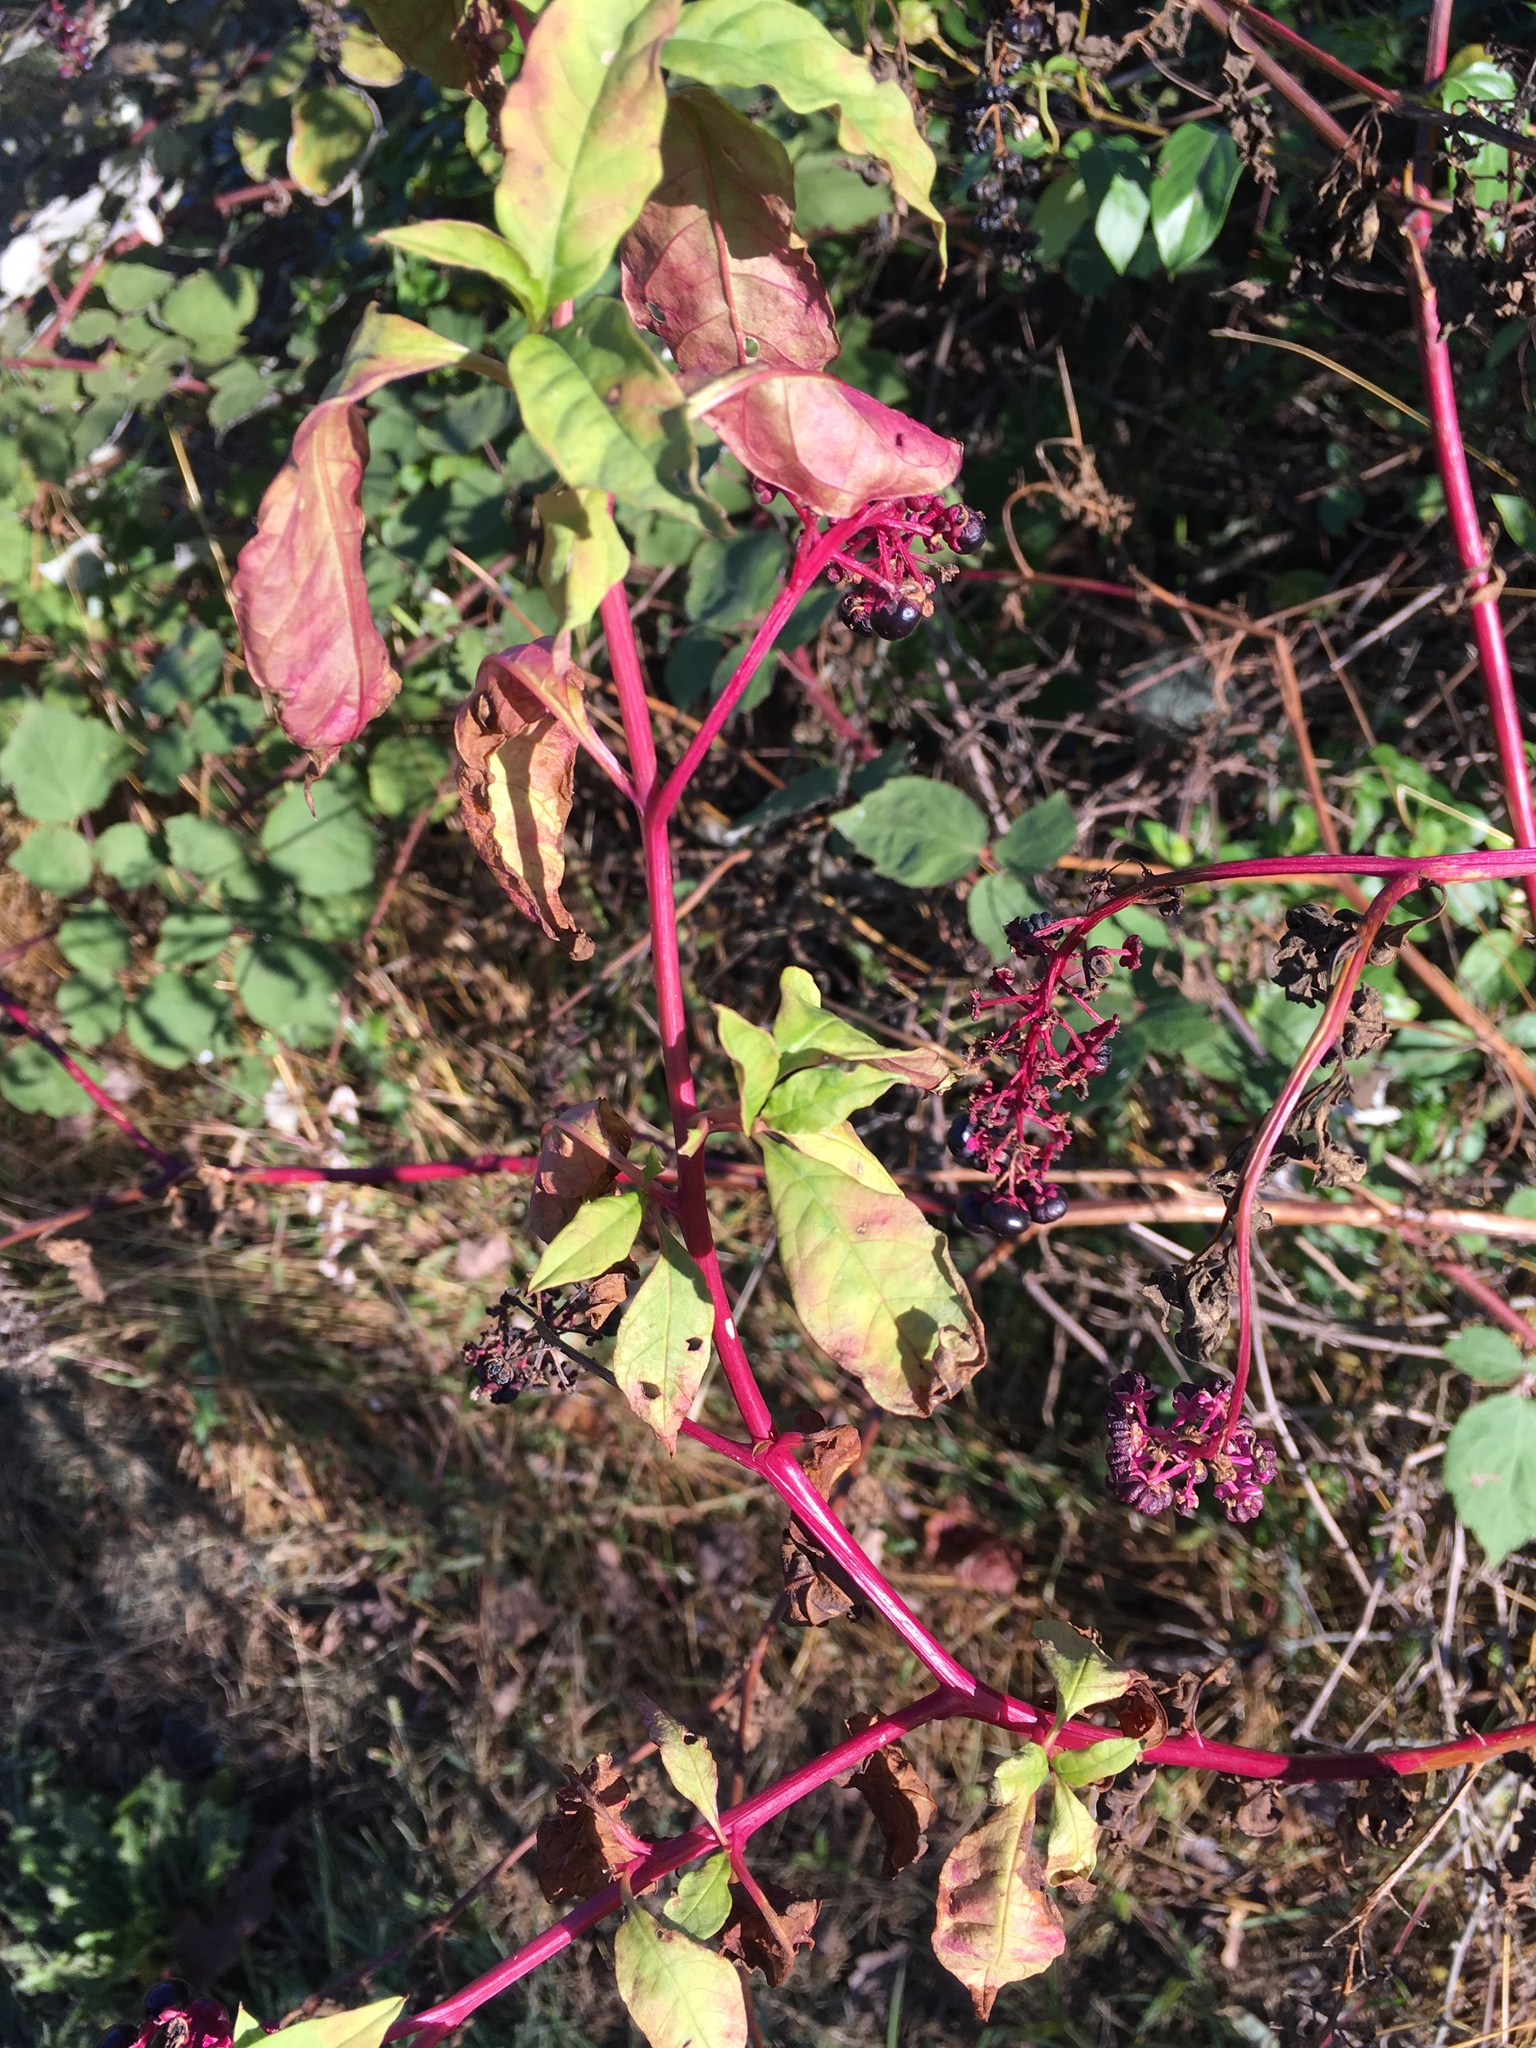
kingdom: Plantae
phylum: Tracheophyta
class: Magnoliopsida
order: Caryophyllales
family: Phytolaccaceae
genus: Phytolacca
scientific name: Phytolacca americana
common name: American pokeweed
